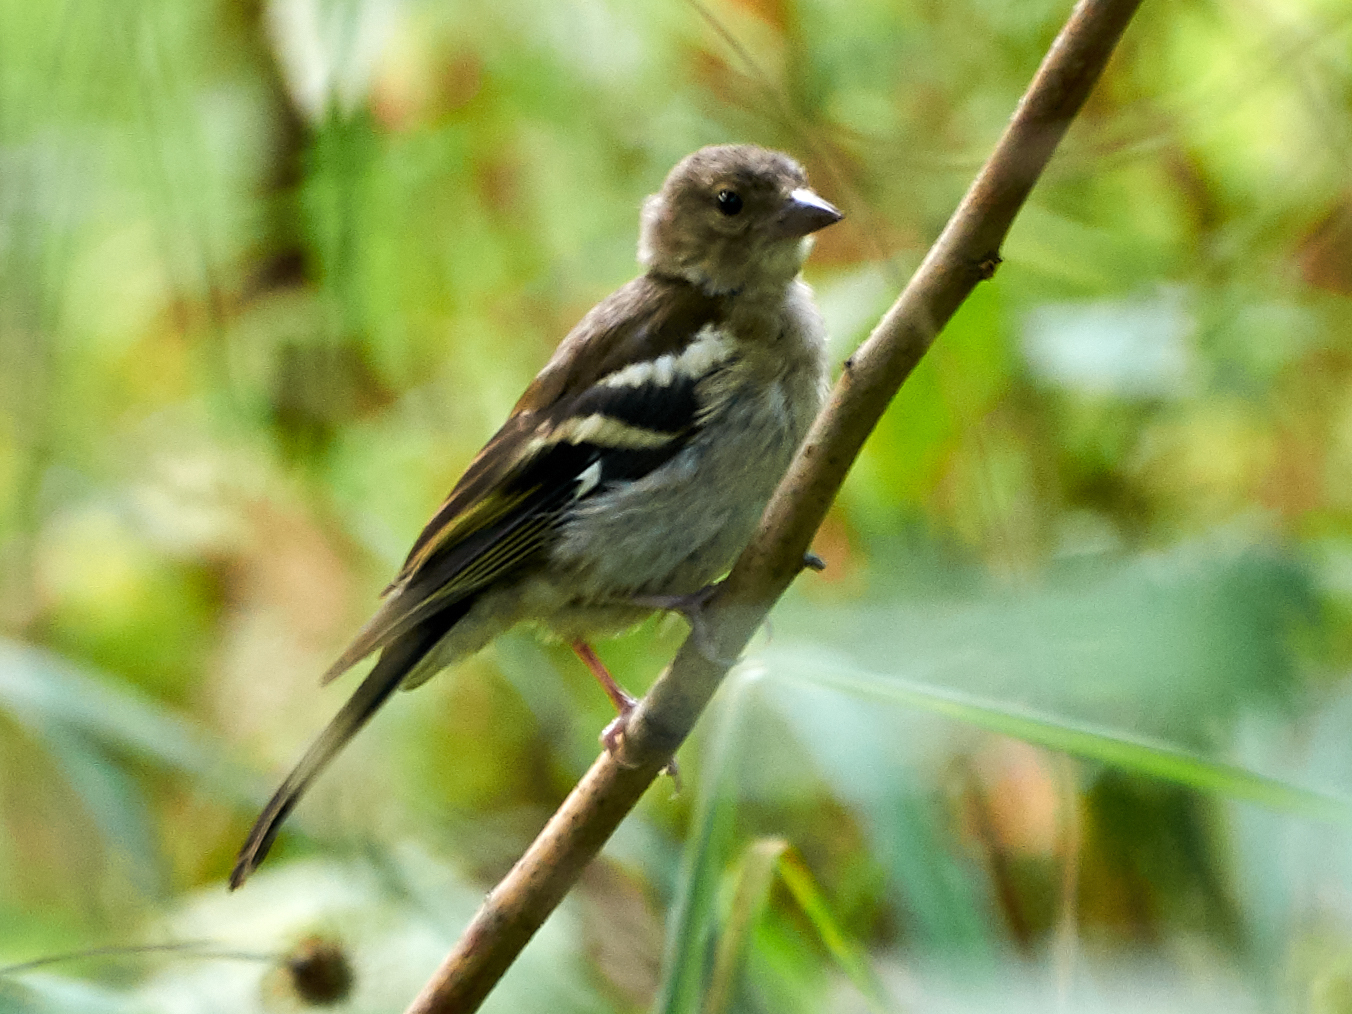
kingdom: Animalia
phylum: Chordata
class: Aves
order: Passeriformes
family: Fringillidae
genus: Fringilla
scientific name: Fringilla coelebs
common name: Common chaffinch
